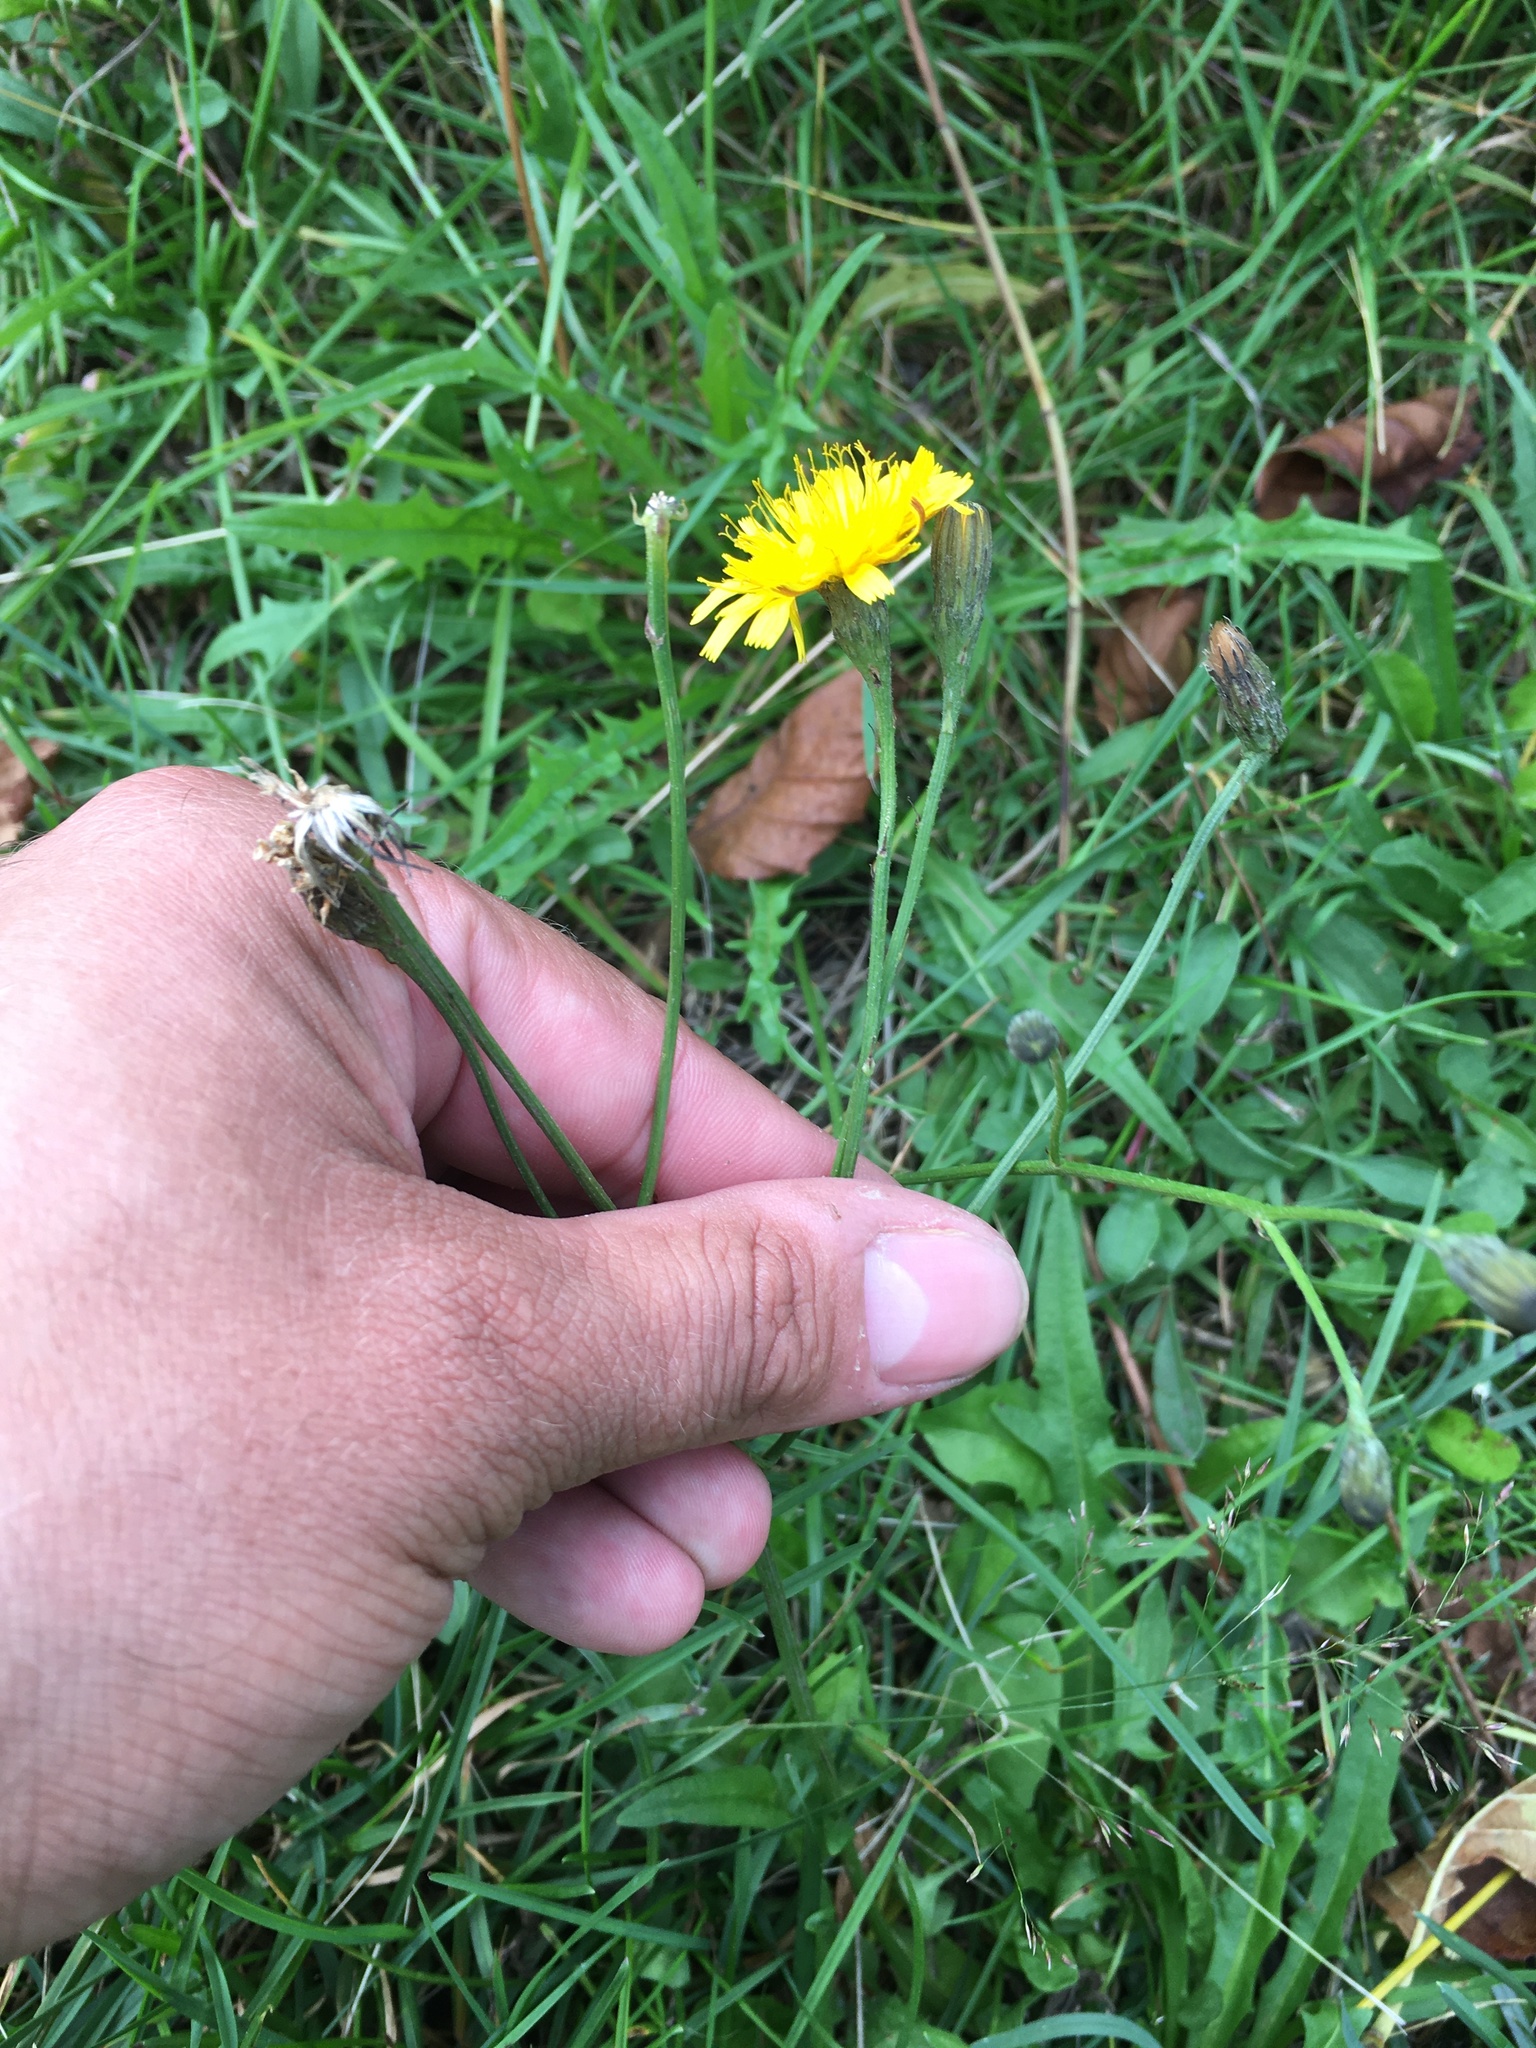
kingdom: Plantae
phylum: Tracheophyta
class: Magnoliopsida
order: Asterales
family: Asteraceae
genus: Scorzoneroides
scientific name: Scorzoneroides autumnalis
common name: Autumn hawkbit
